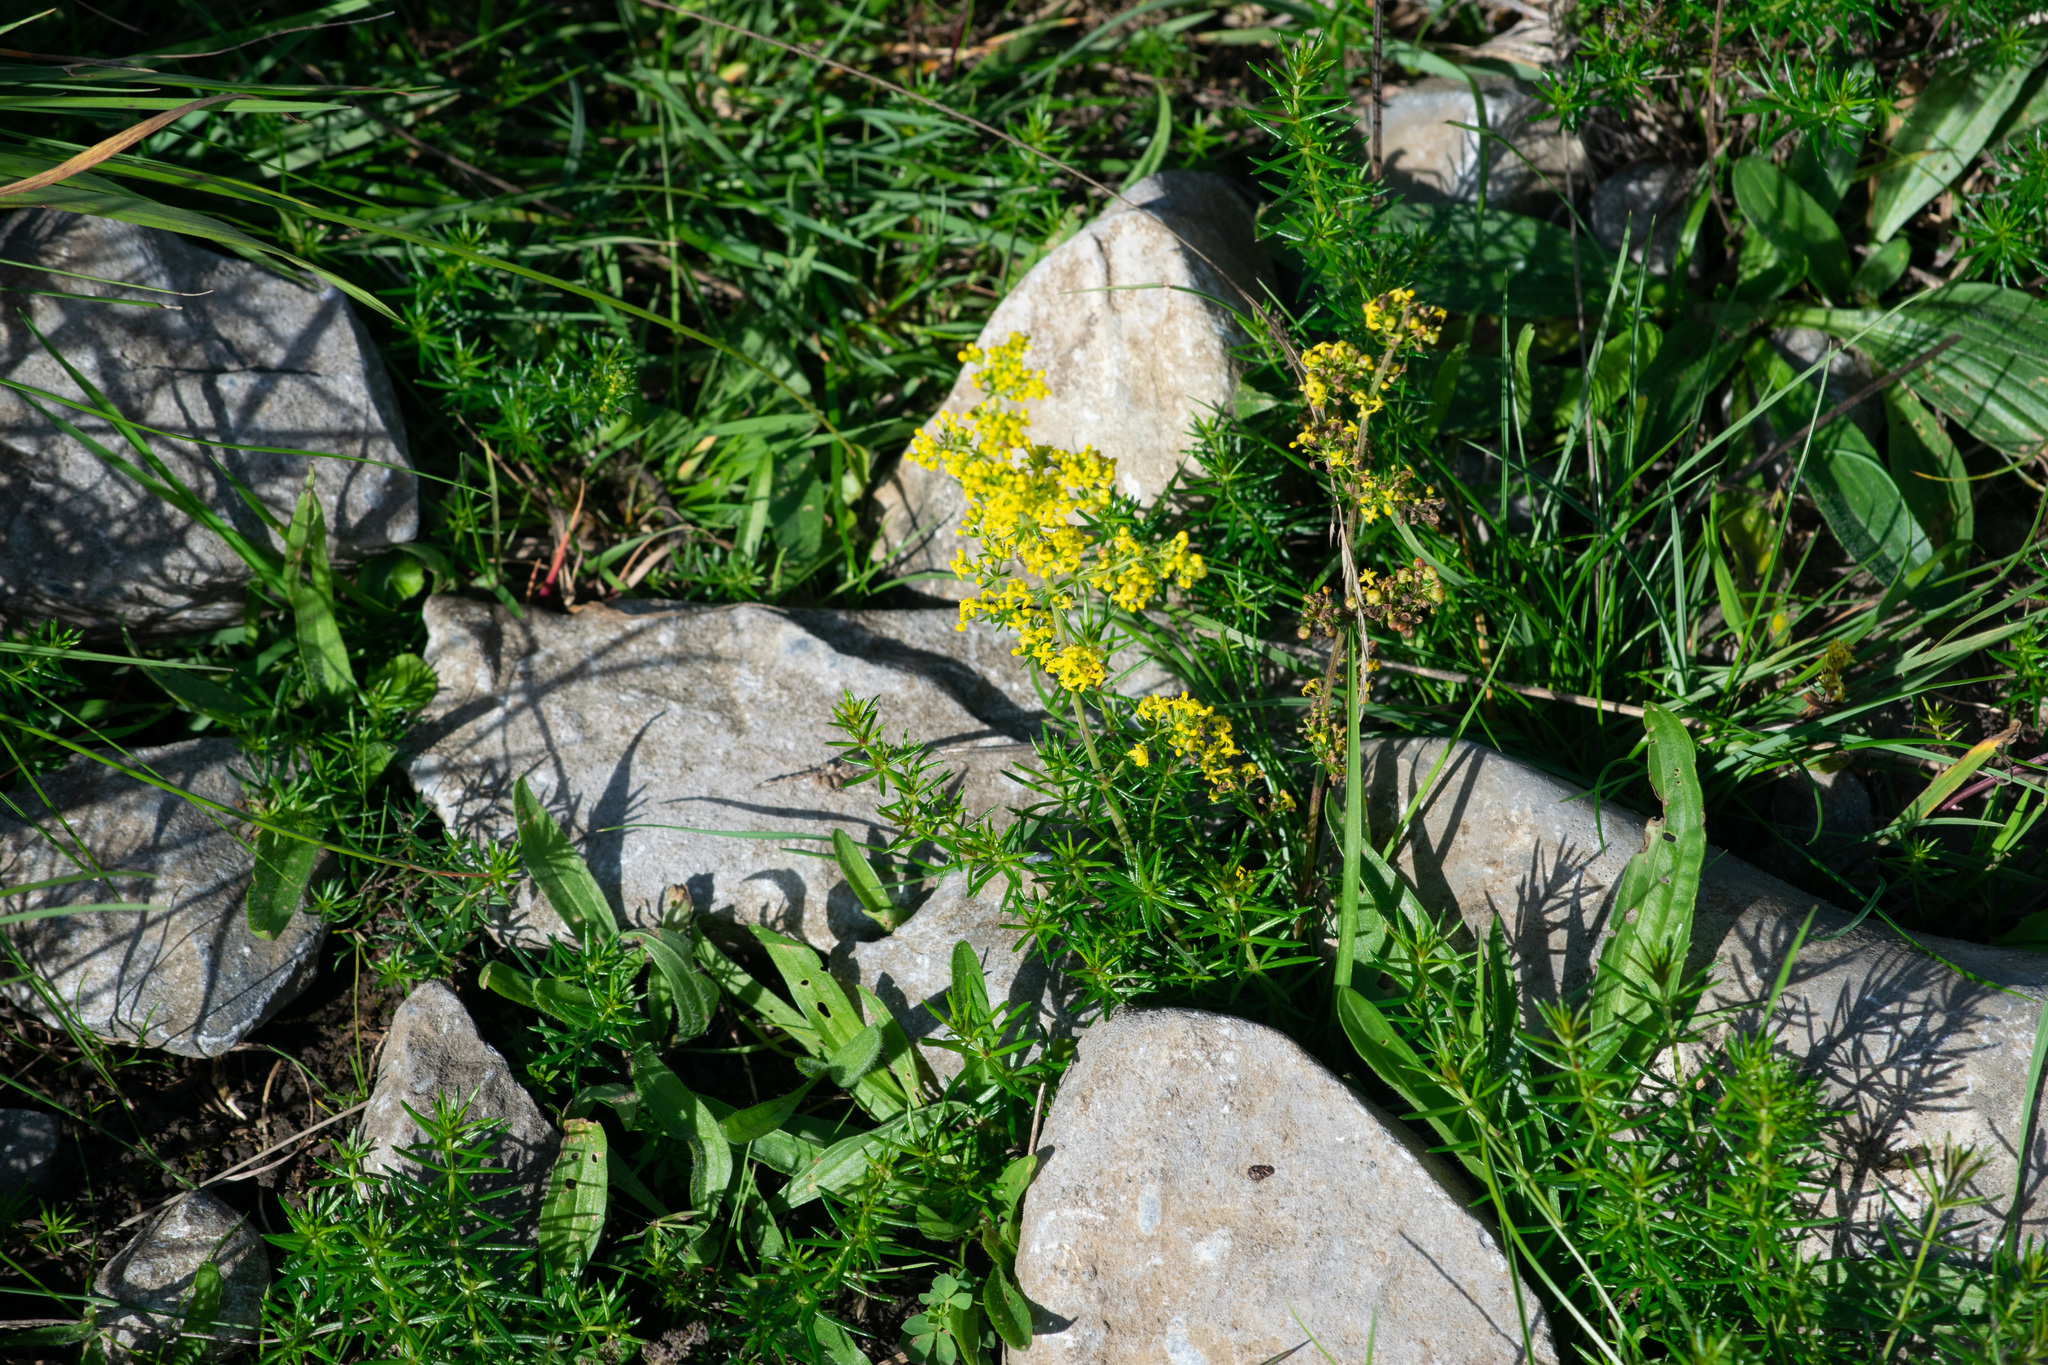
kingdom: Plantae
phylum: Tracheophyta
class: Magnoliopsida
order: Gentianales
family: Rubiaceae
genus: Galium
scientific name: Galium verum
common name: Lady's bedstraw
